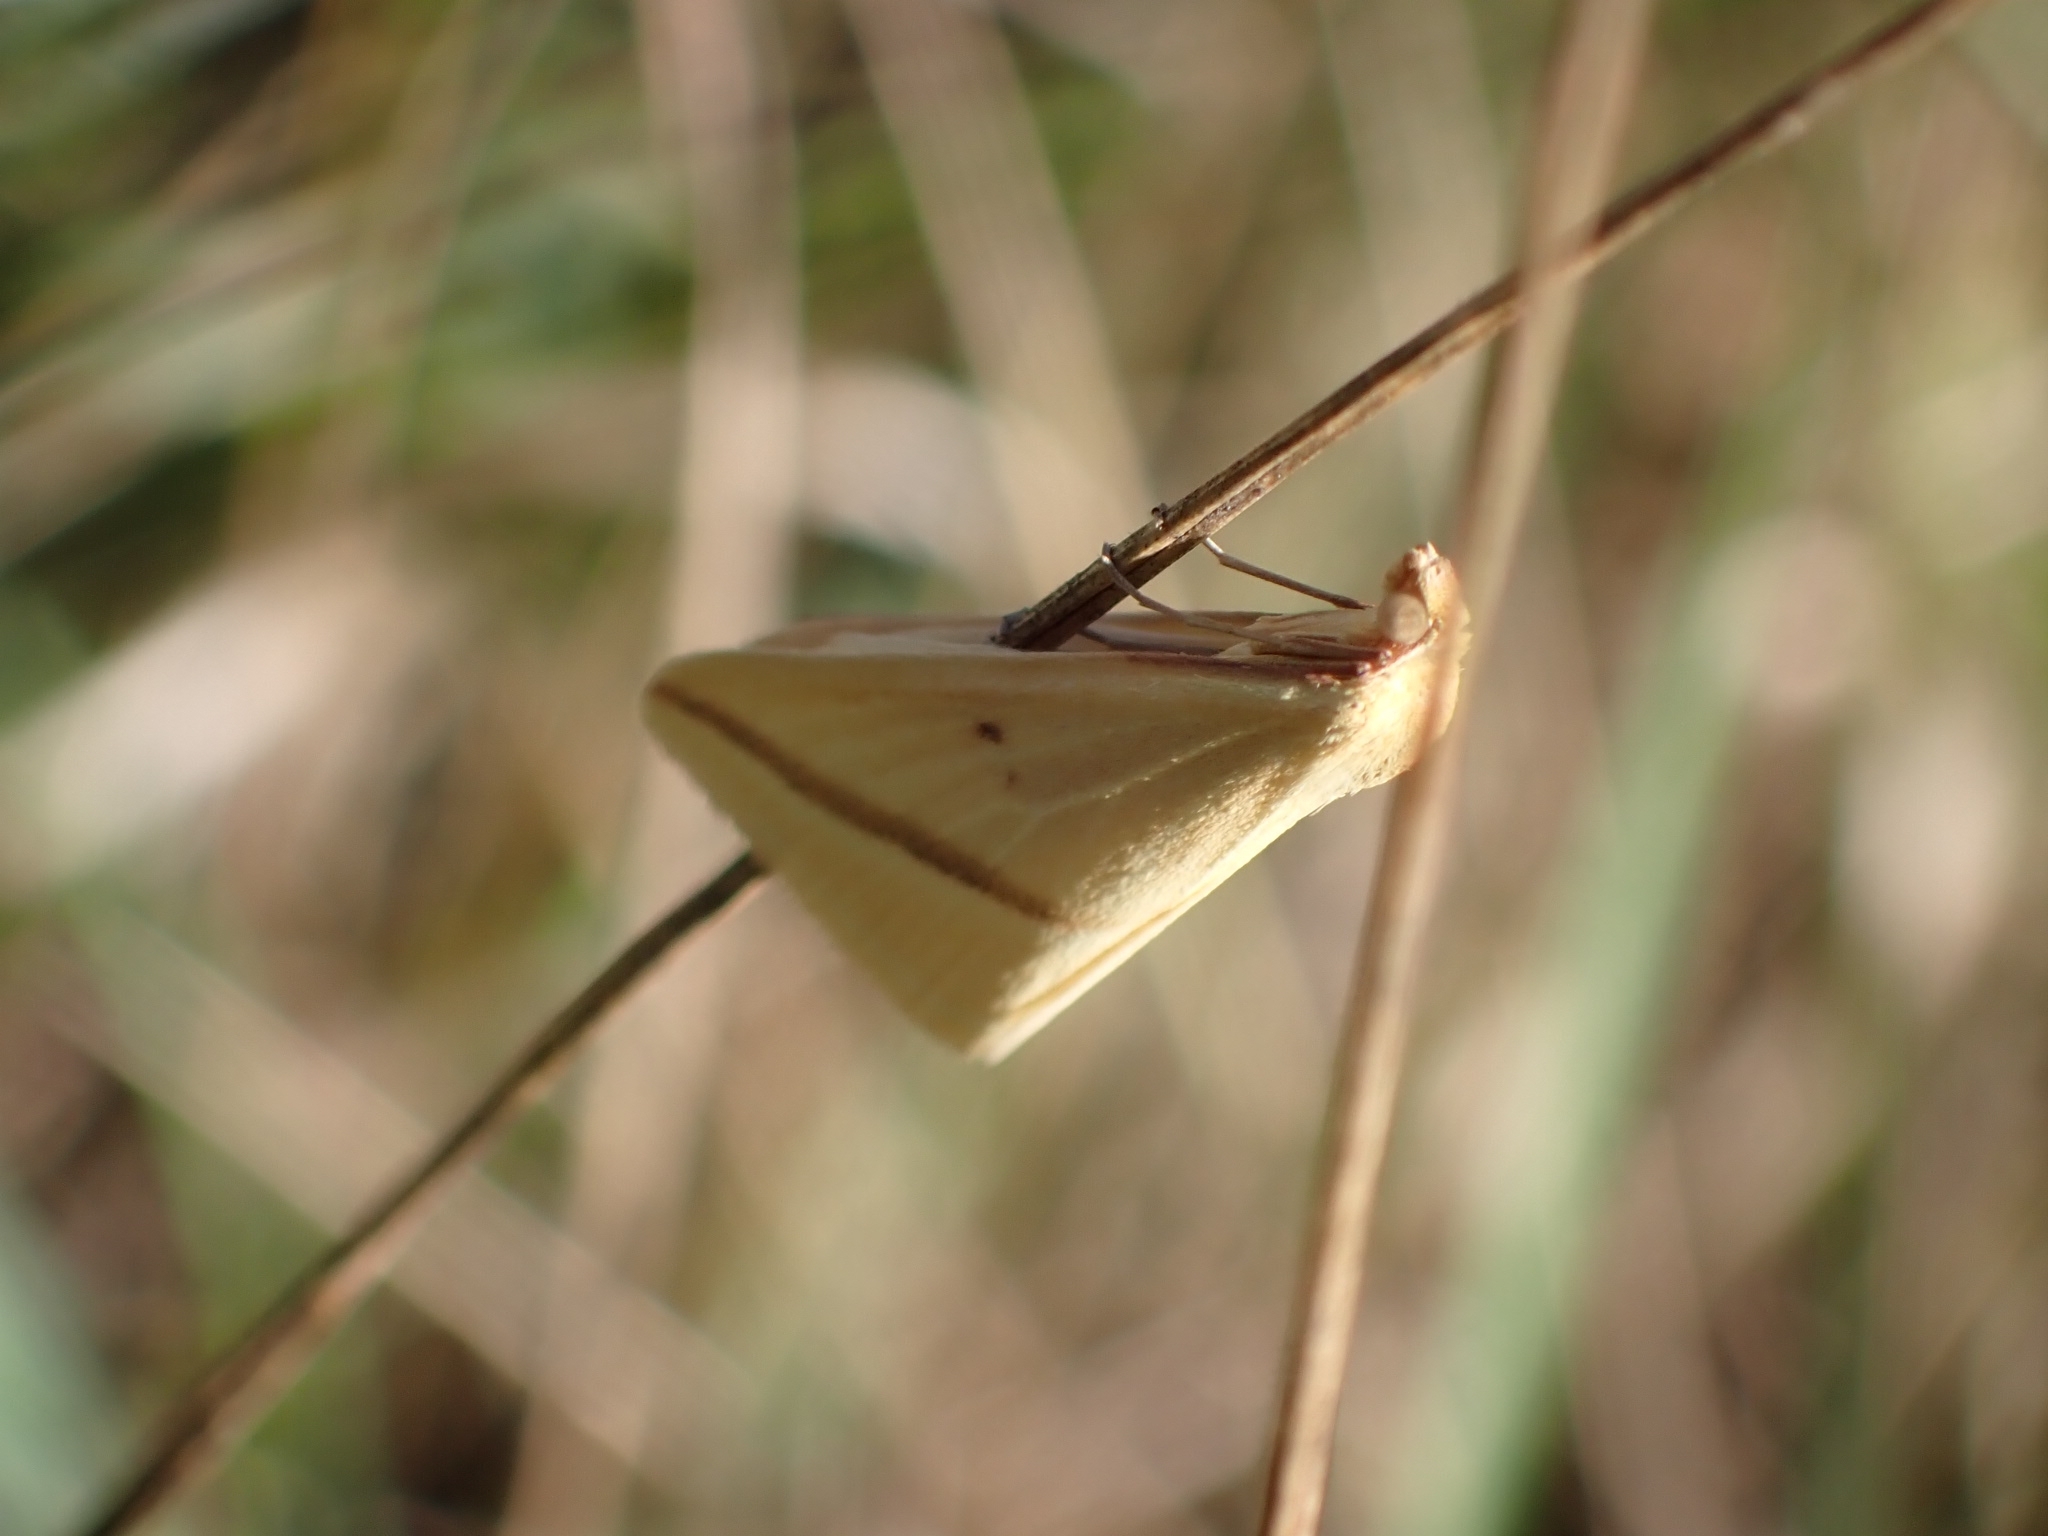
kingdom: Animalia
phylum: Arthropoda
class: Insecta
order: Lepidoptera
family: Geometridae
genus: Rhodometra
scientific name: Rhodometra sacraria
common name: Vestal
